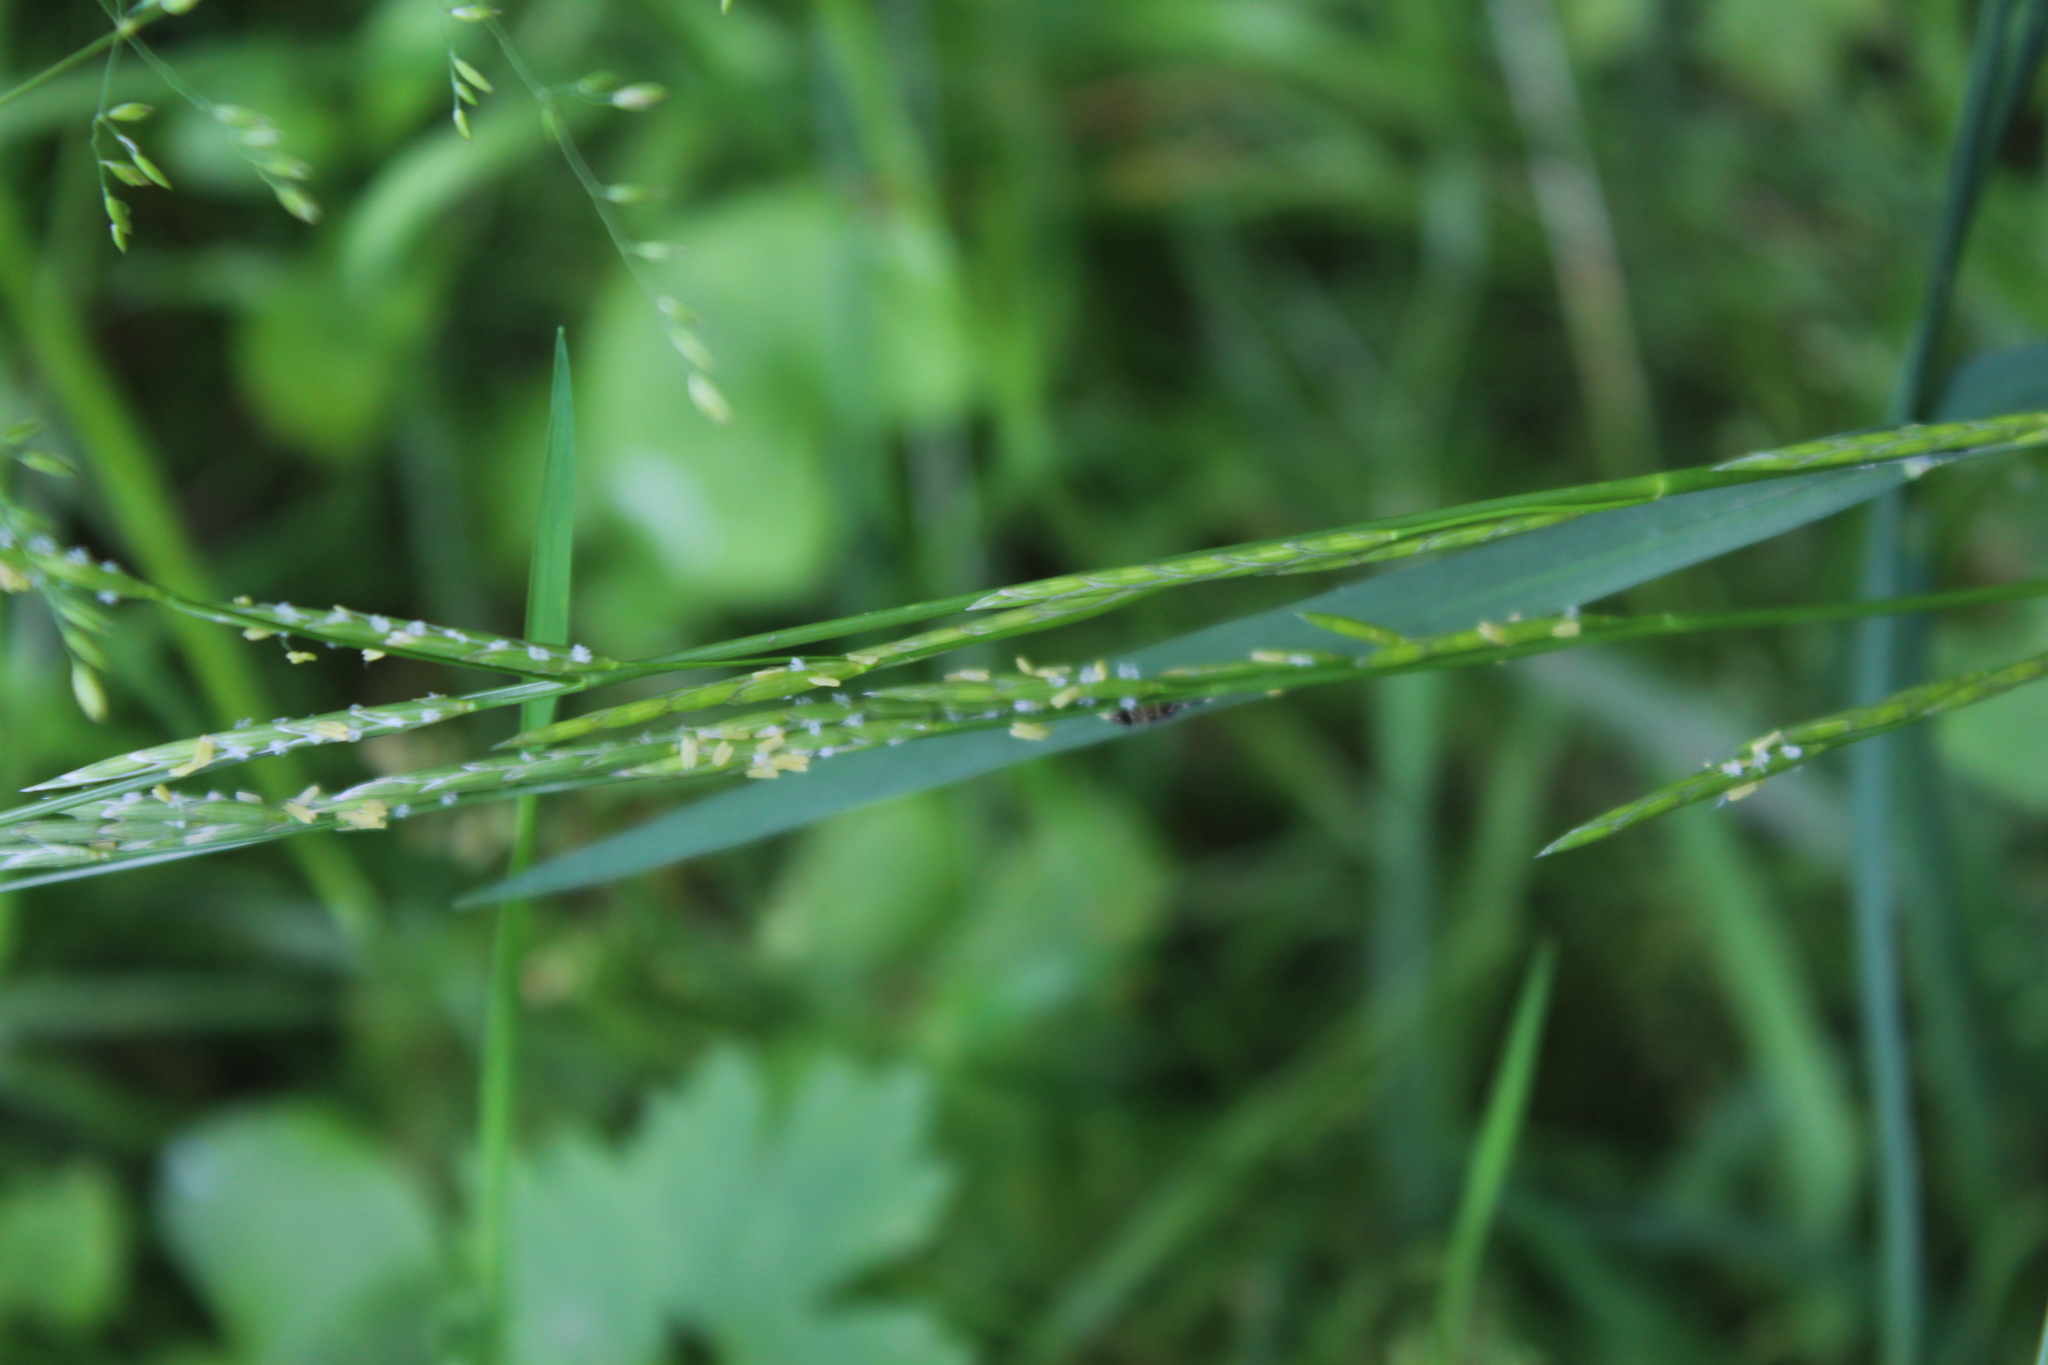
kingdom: Plantae
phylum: Tracheophyta
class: Liliopsida
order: Poales
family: Poaceae
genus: Glyceria
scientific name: Glyceria notata
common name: Plicate sweet-grass
